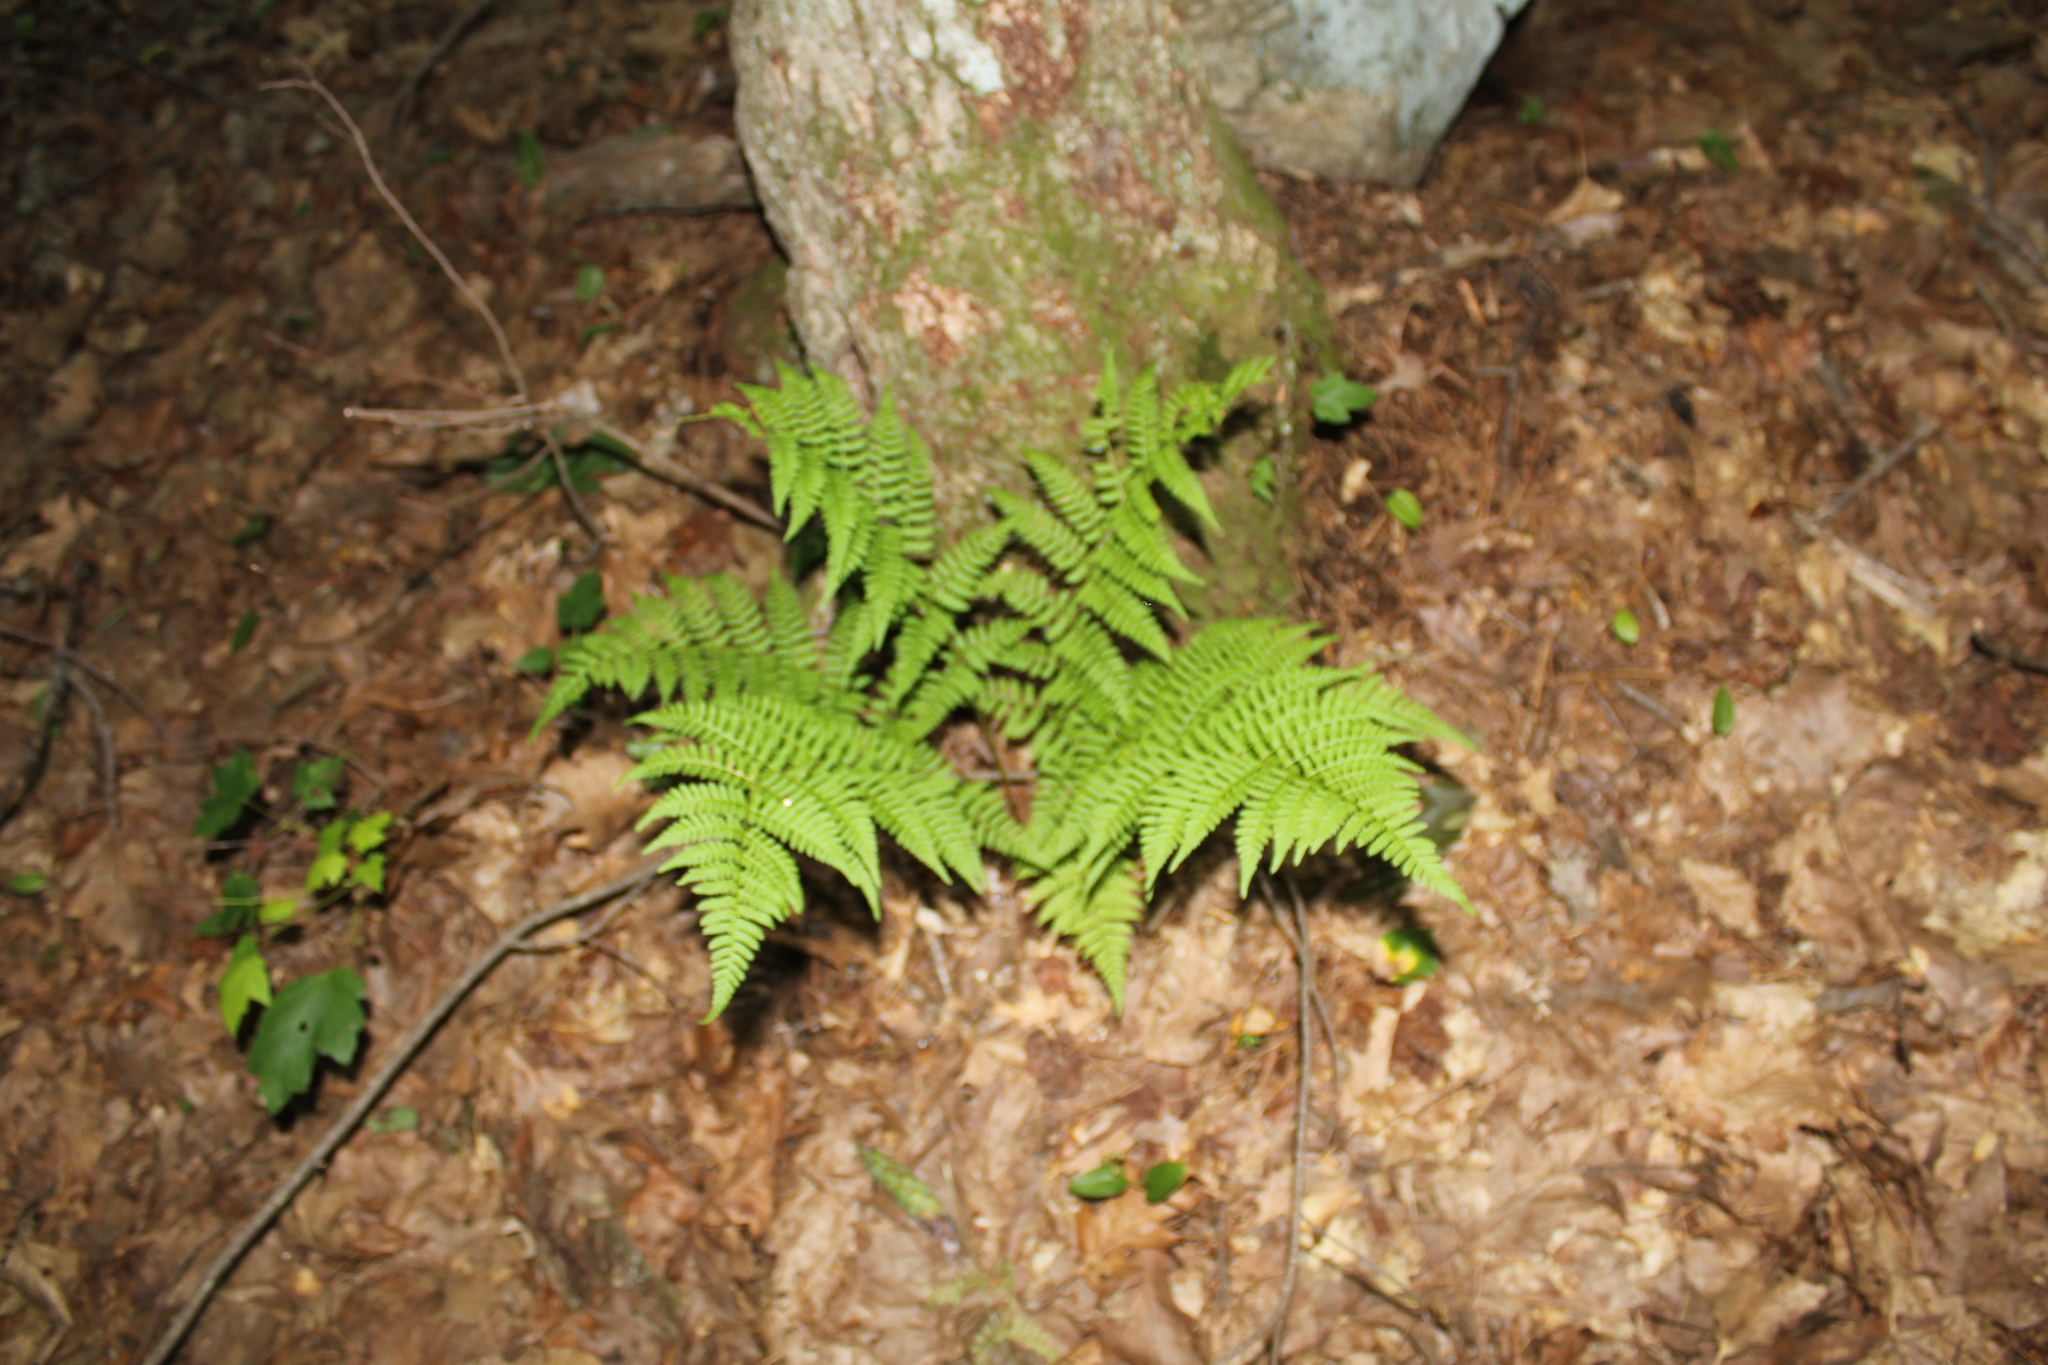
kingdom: Plantae
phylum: Tracheophyta
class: Polypodiopsida
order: Polypodiales
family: Dryopteridaceae
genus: Dryopteris
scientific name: Dryopteris intermedia
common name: Evergreen wood fern
